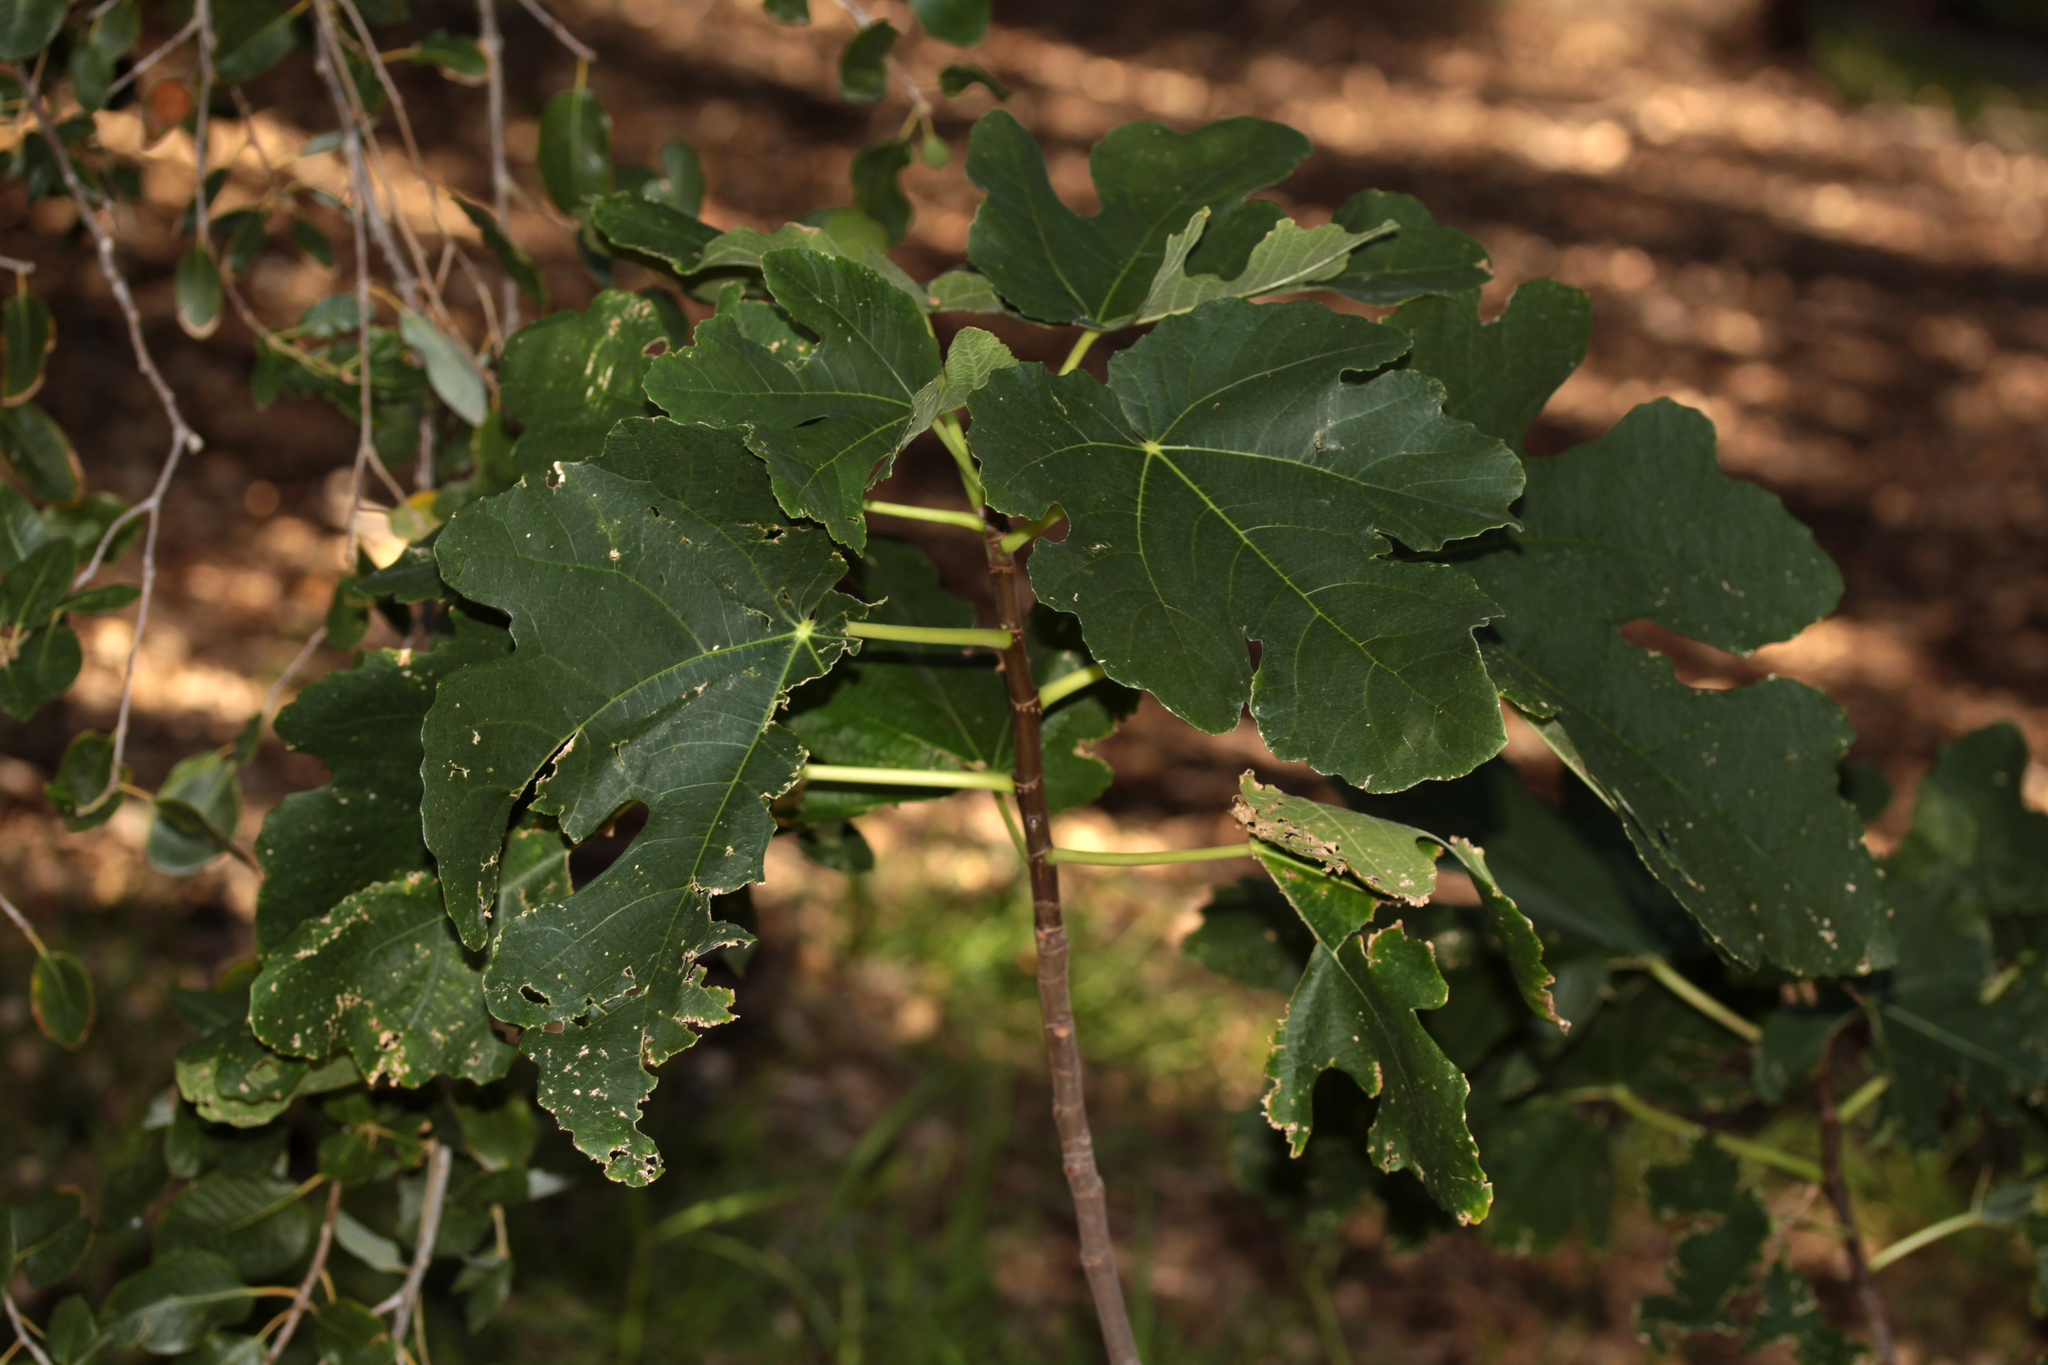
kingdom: Plantae
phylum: Tracheophyta
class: Magnoliopsida
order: Rosales
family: Moraceae
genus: Ficus
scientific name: Ficus carica
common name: Fig
